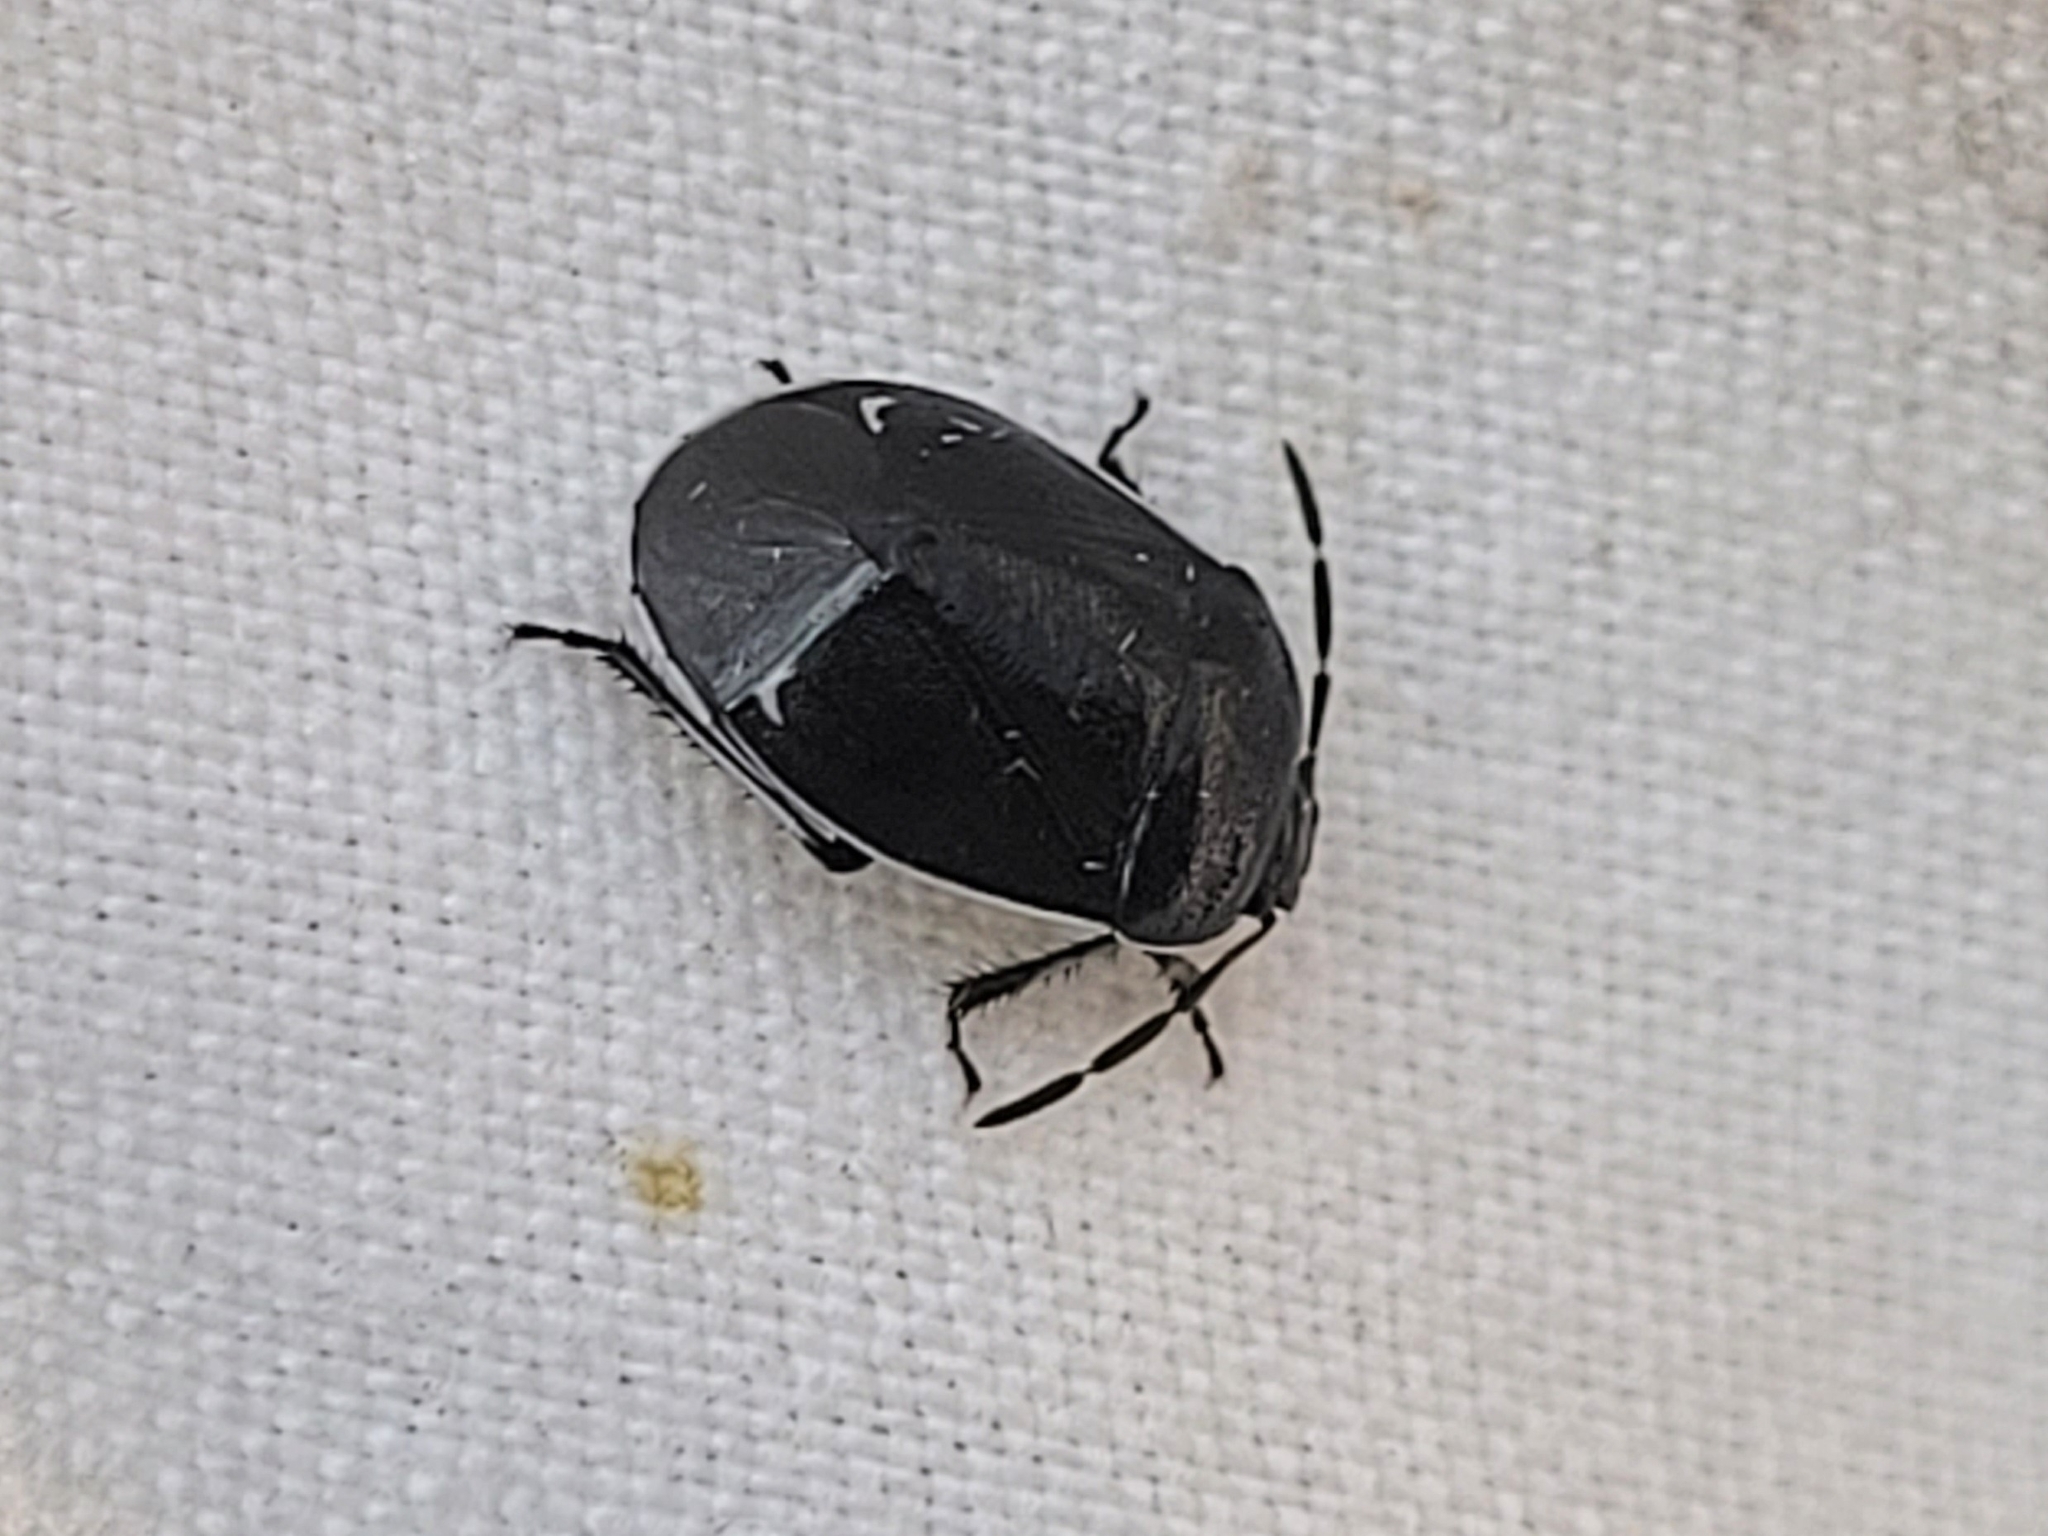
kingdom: Animalia
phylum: Arthropoda
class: Insecta
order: Hemiptera
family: Cydnidae
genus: Sehirus
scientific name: Sehirus cinctus
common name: White-margined burrower bug
